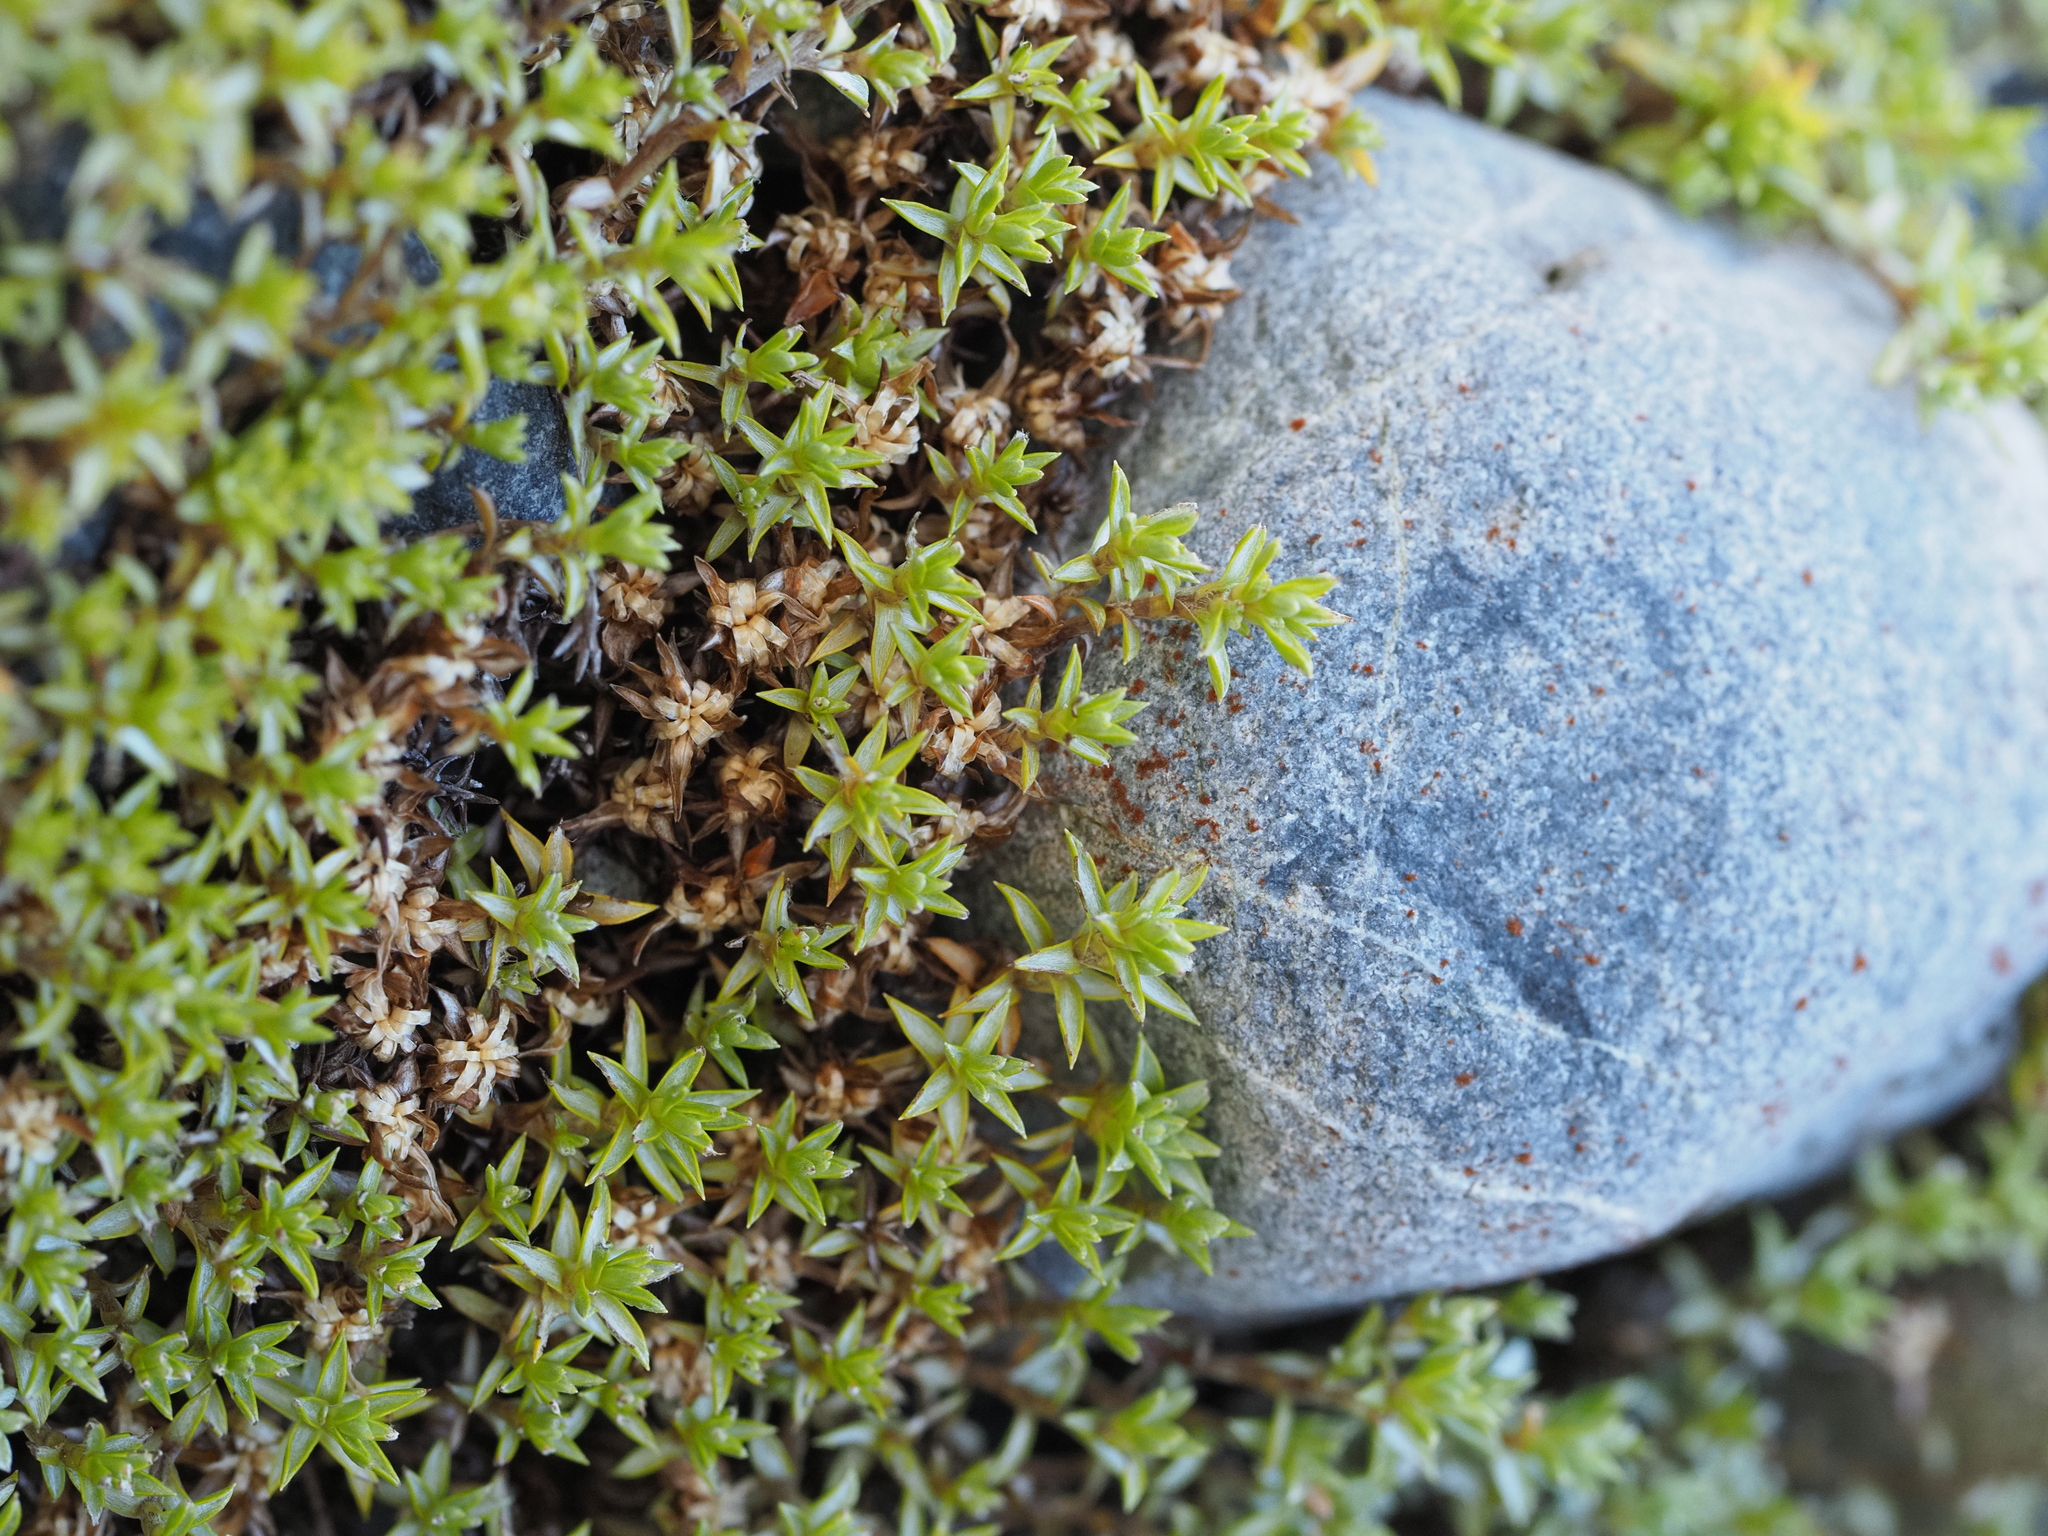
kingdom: Plantae
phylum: Tracheophyta
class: Magnoliopsida
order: Asterales
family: Asteraceae
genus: Raoulia
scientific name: Raoulia tenuicaulis
